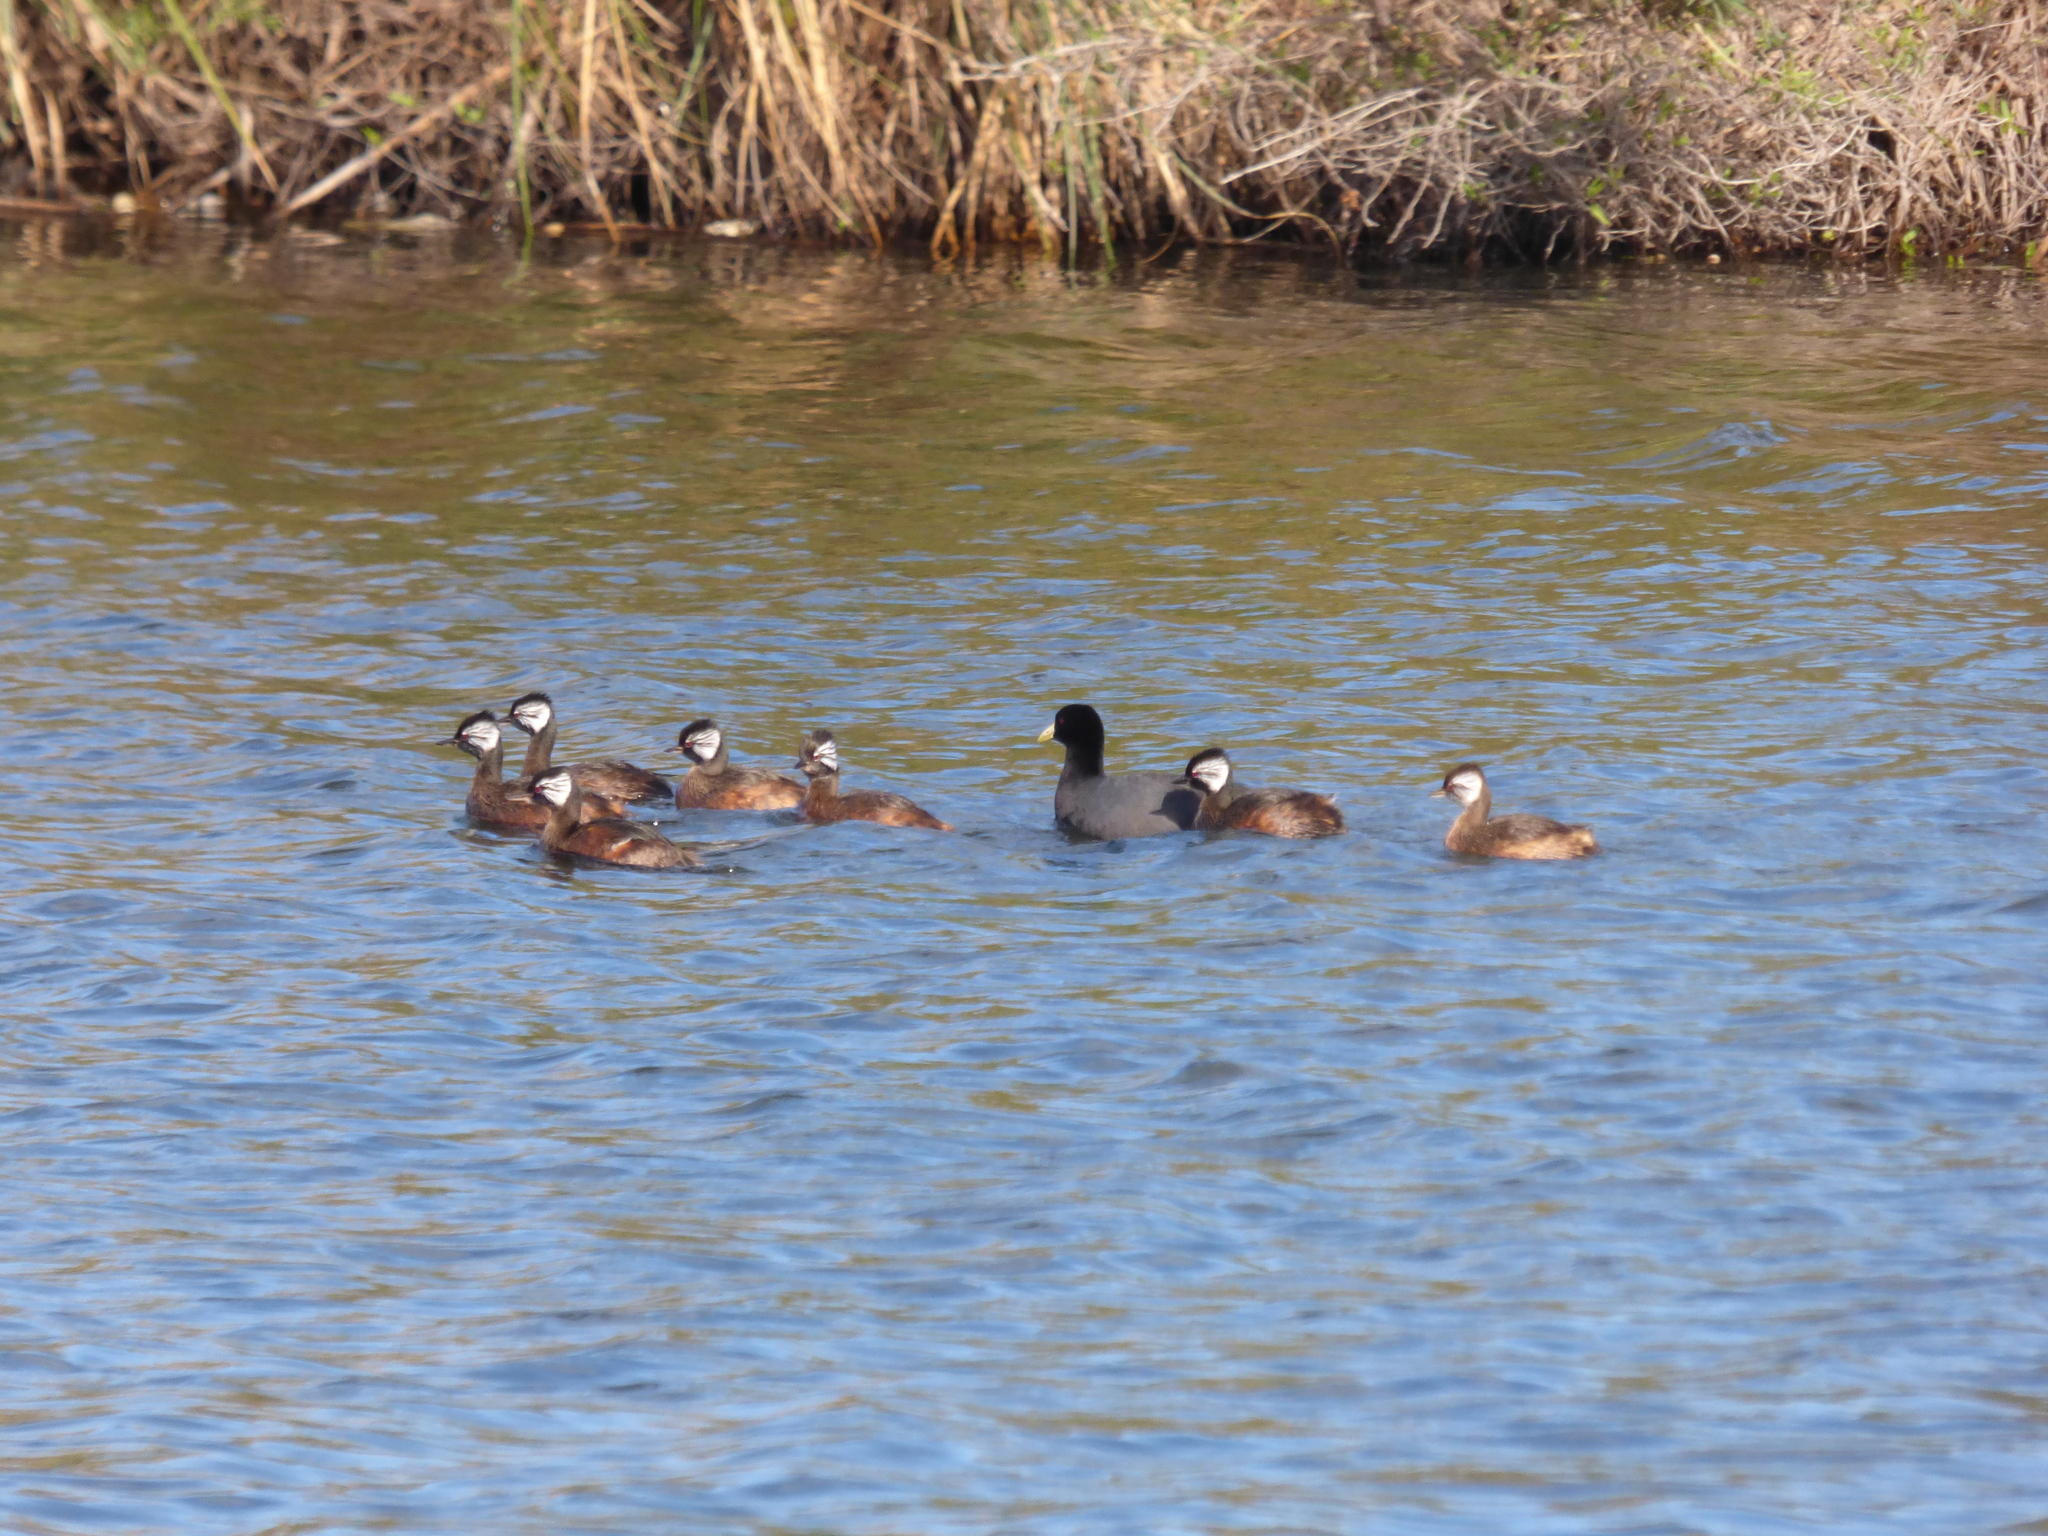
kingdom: Animalia
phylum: Chordata
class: Aves
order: Podicipediformes
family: Podicipedidae
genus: Rollandia
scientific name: Rollandia rolland
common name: White-tufted grebe
